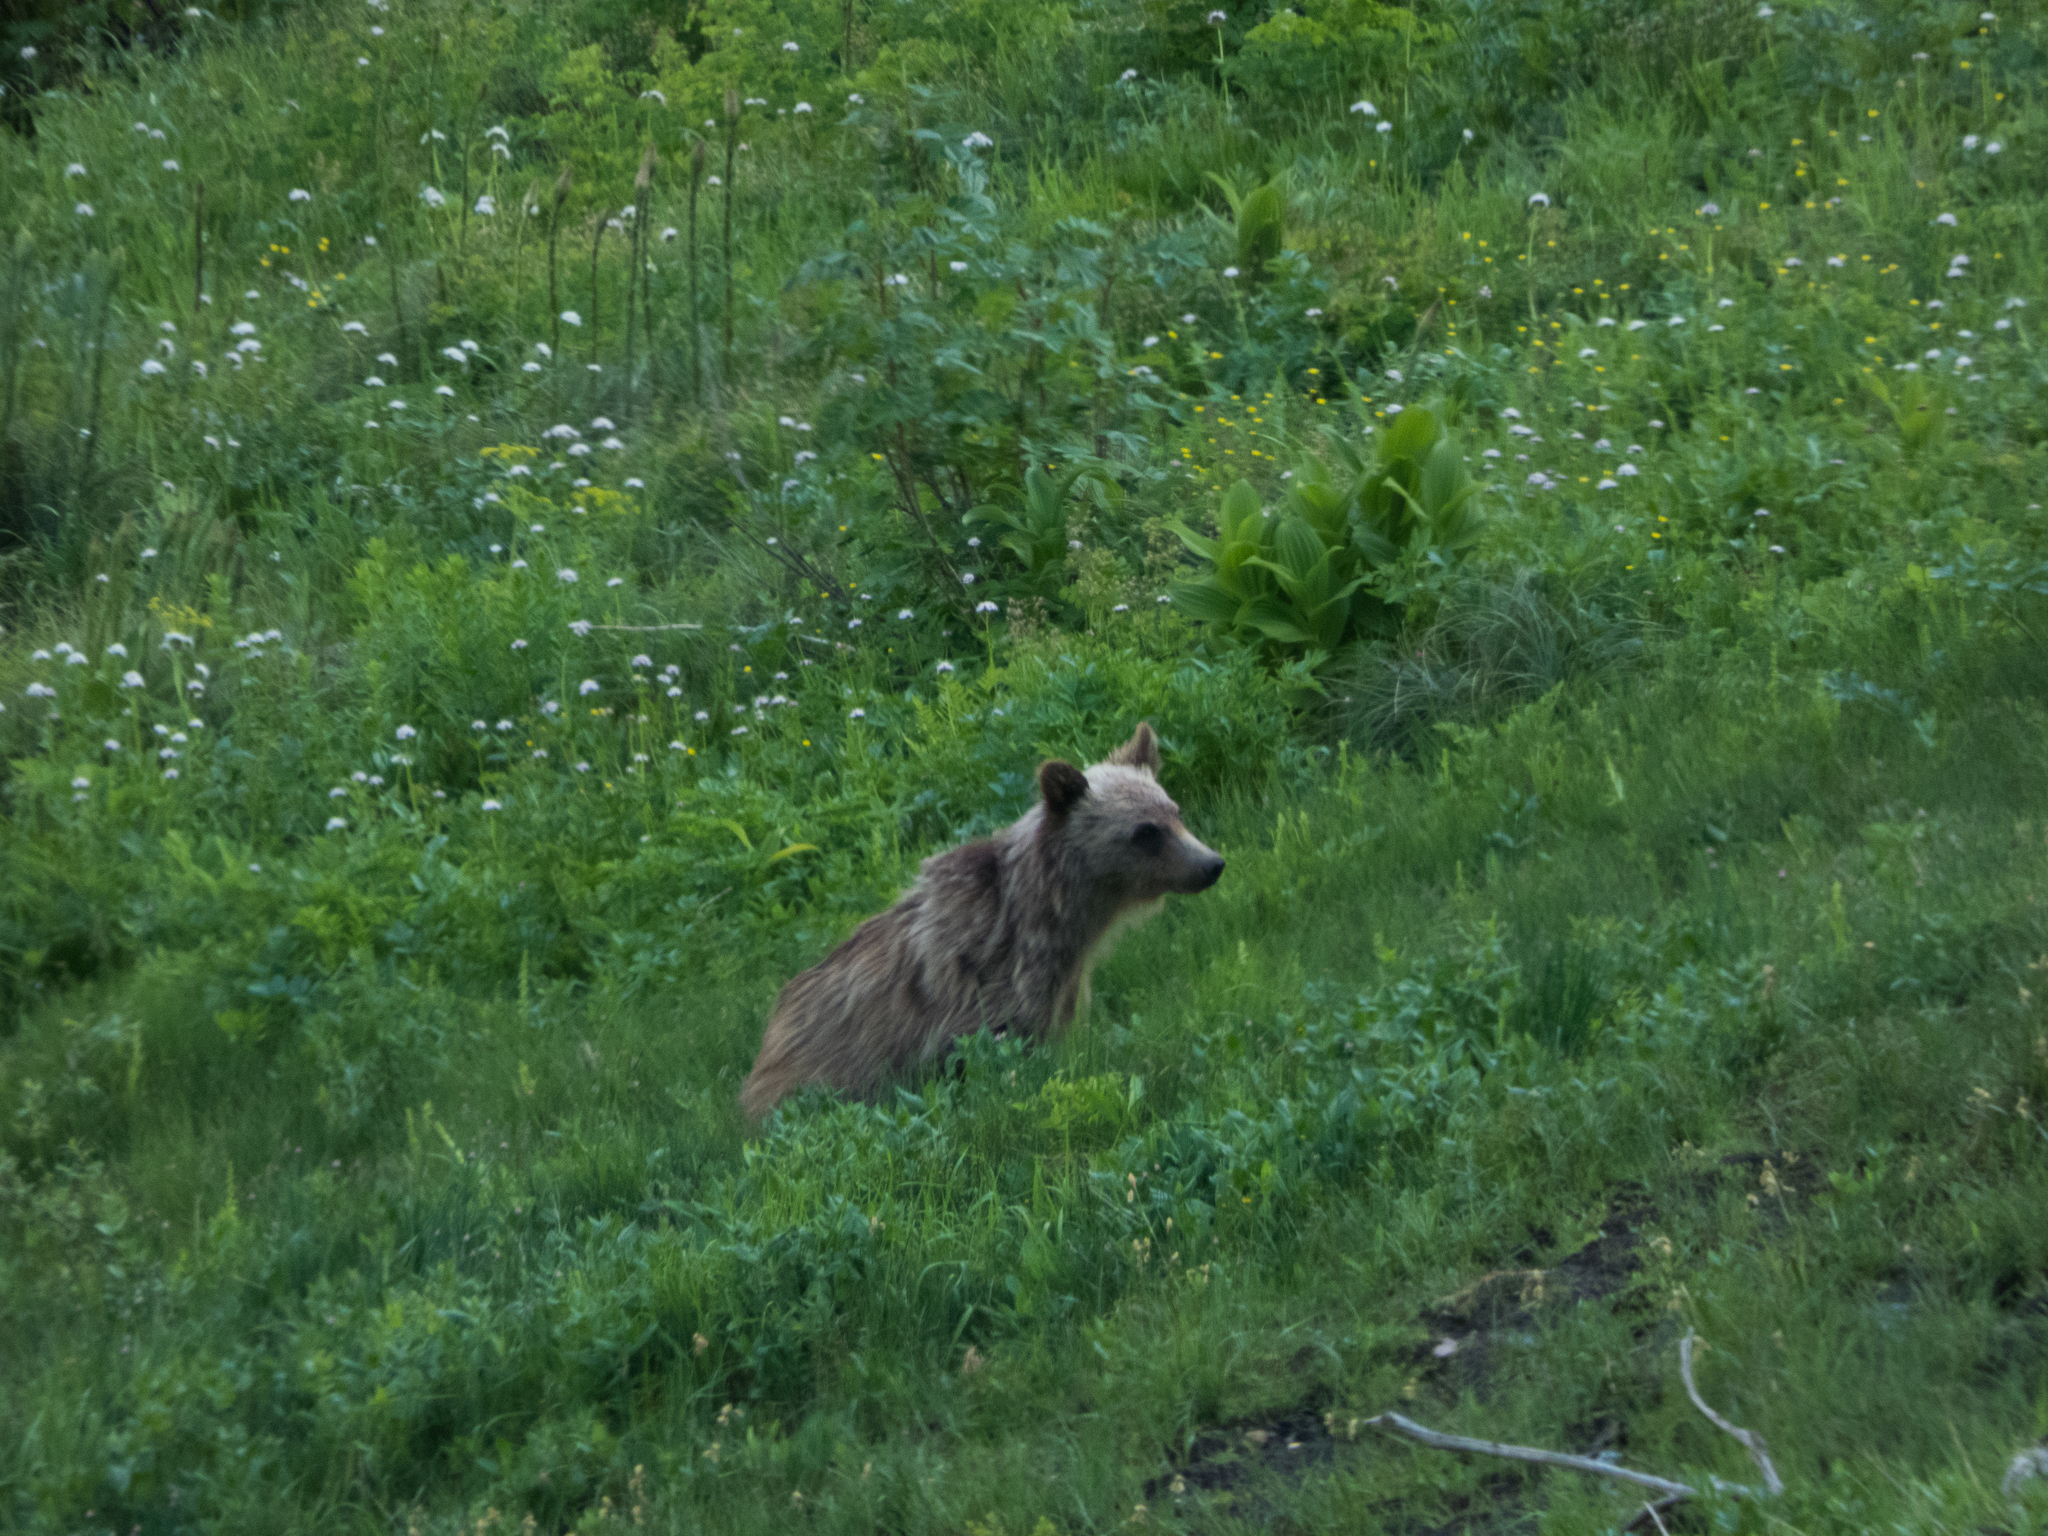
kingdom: Animalia
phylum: Chordata
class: Mammalia
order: Carnivora
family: Ursidae
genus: Ursus
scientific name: Ursus arctos
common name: Brown bear
